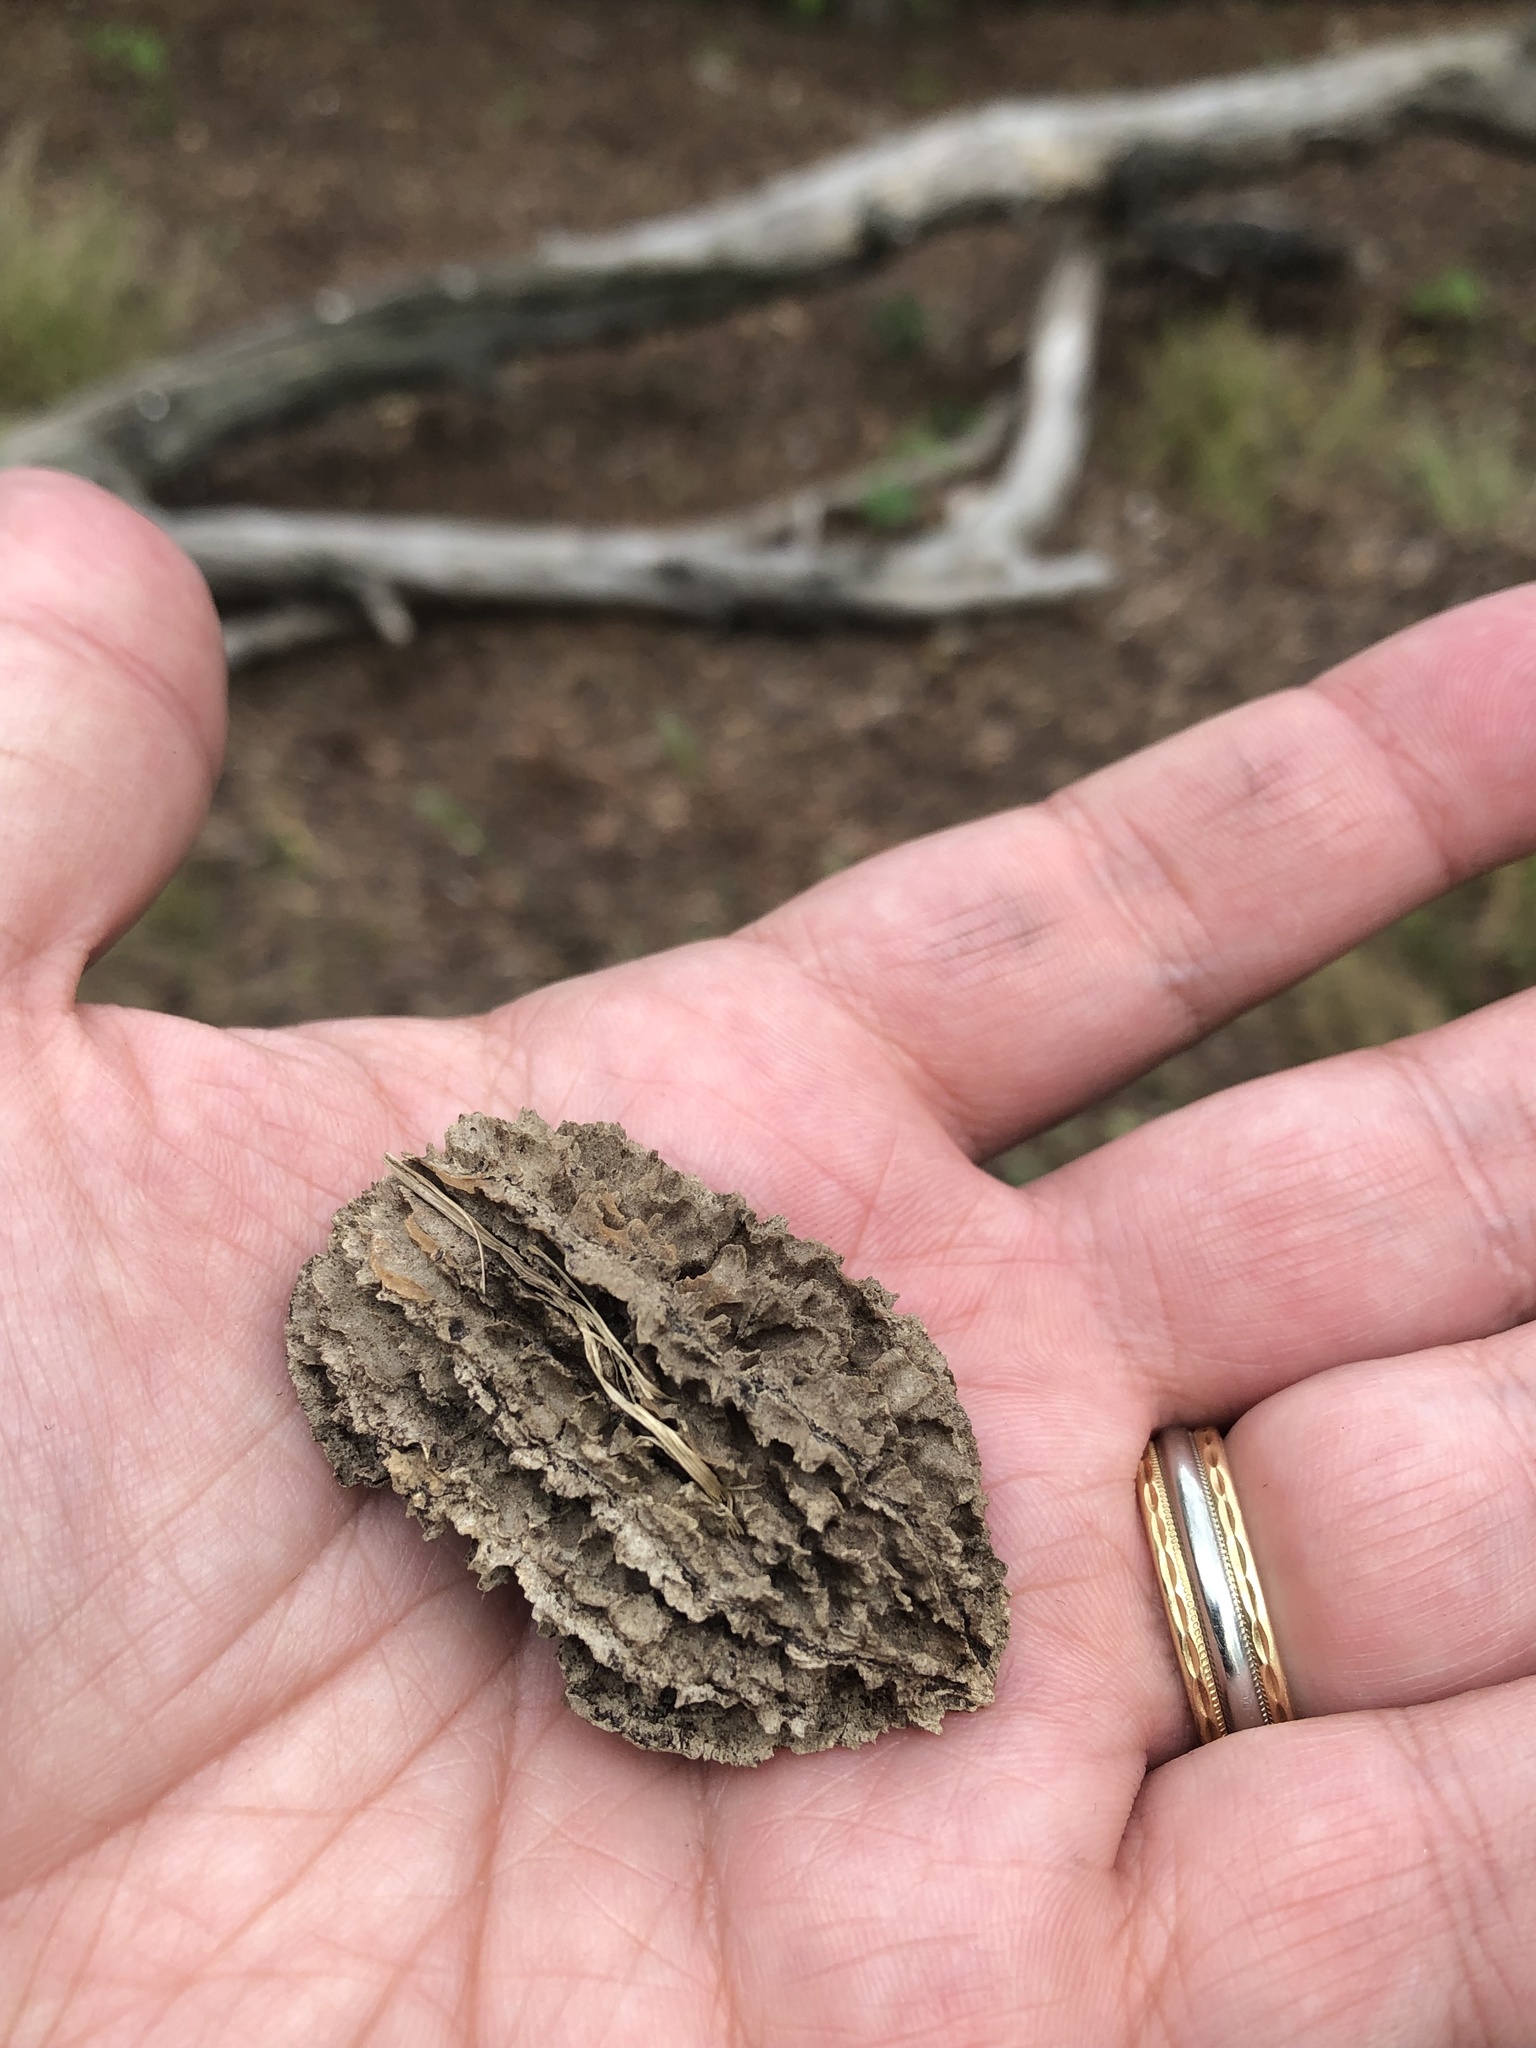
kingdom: Plantae
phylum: Tracheophyta
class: Magnoliopsida
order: Fagales
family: Juglandaceae
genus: Juglans
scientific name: Juglans cinerea
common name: Butternut
